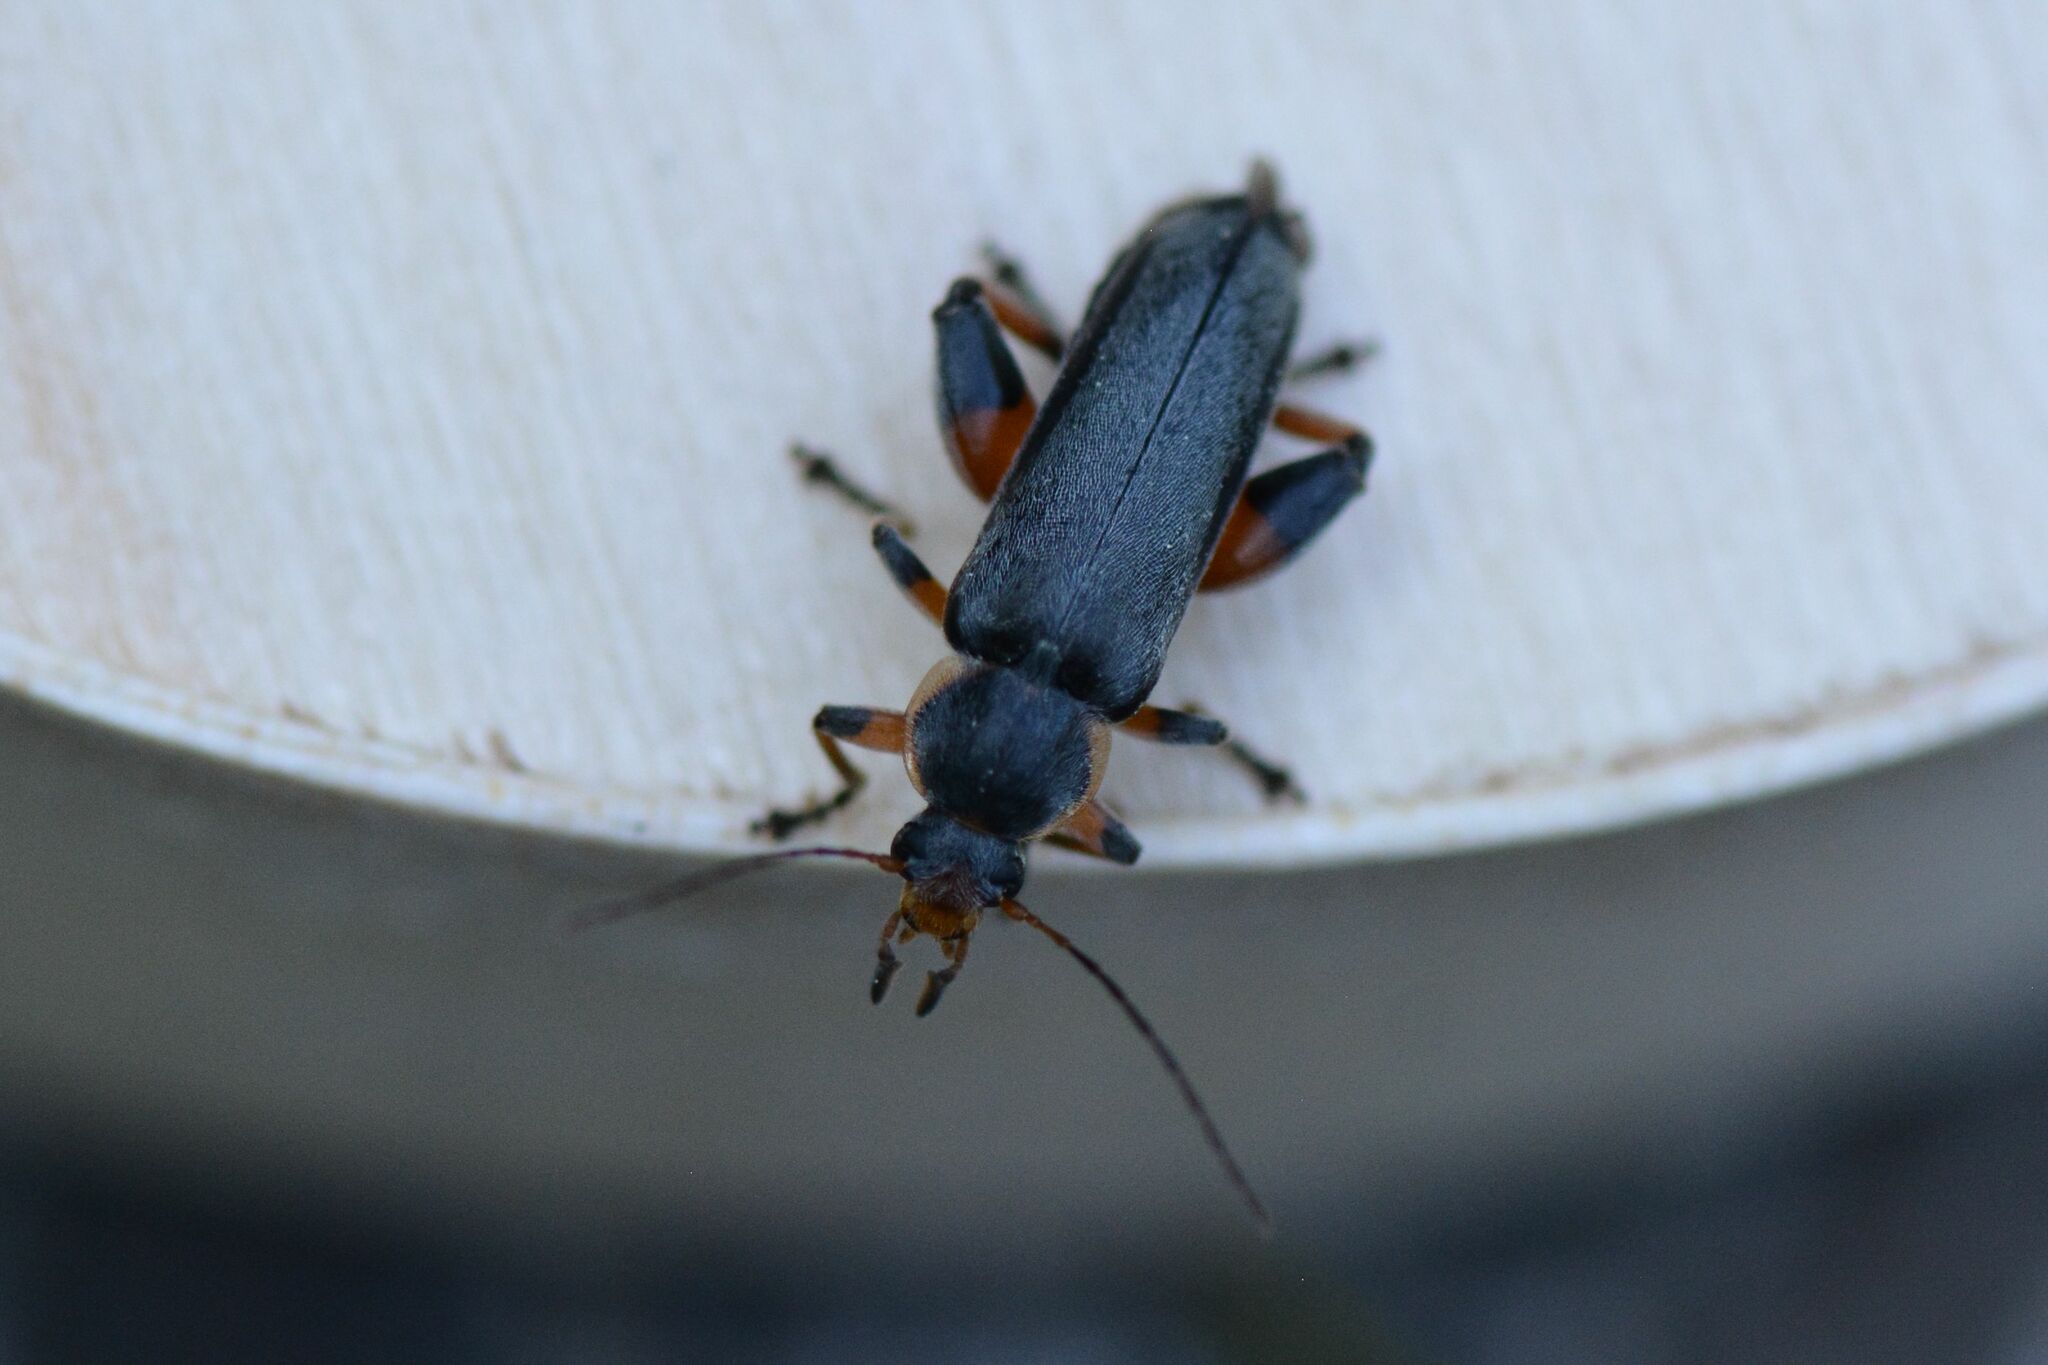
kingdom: Animalia
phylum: Arthropoda
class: Insecta
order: Coleoptera
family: Melandryidae
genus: Osphya
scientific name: Osphya bipunctata
